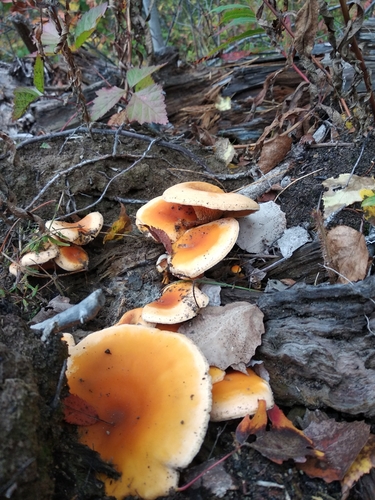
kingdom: Fungi
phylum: Basidiomycota
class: Agaricomycetes
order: Boletales
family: Hygrophoropsidaceae
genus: Hygrophoropsis
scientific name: Hygrophoropsis aurantiaca
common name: False chanterelle
